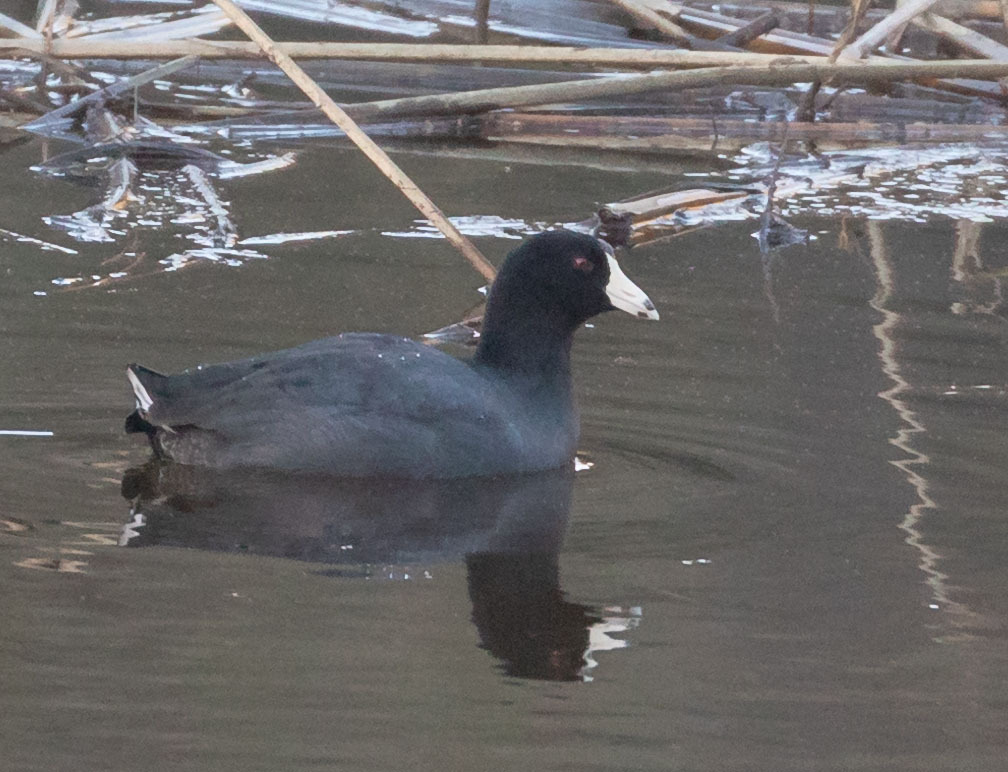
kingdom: Animalia
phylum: Chordata
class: Aves
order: Gruiformes
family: Rallidae
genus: Fulica
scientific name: Fulica americana
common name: American coot
